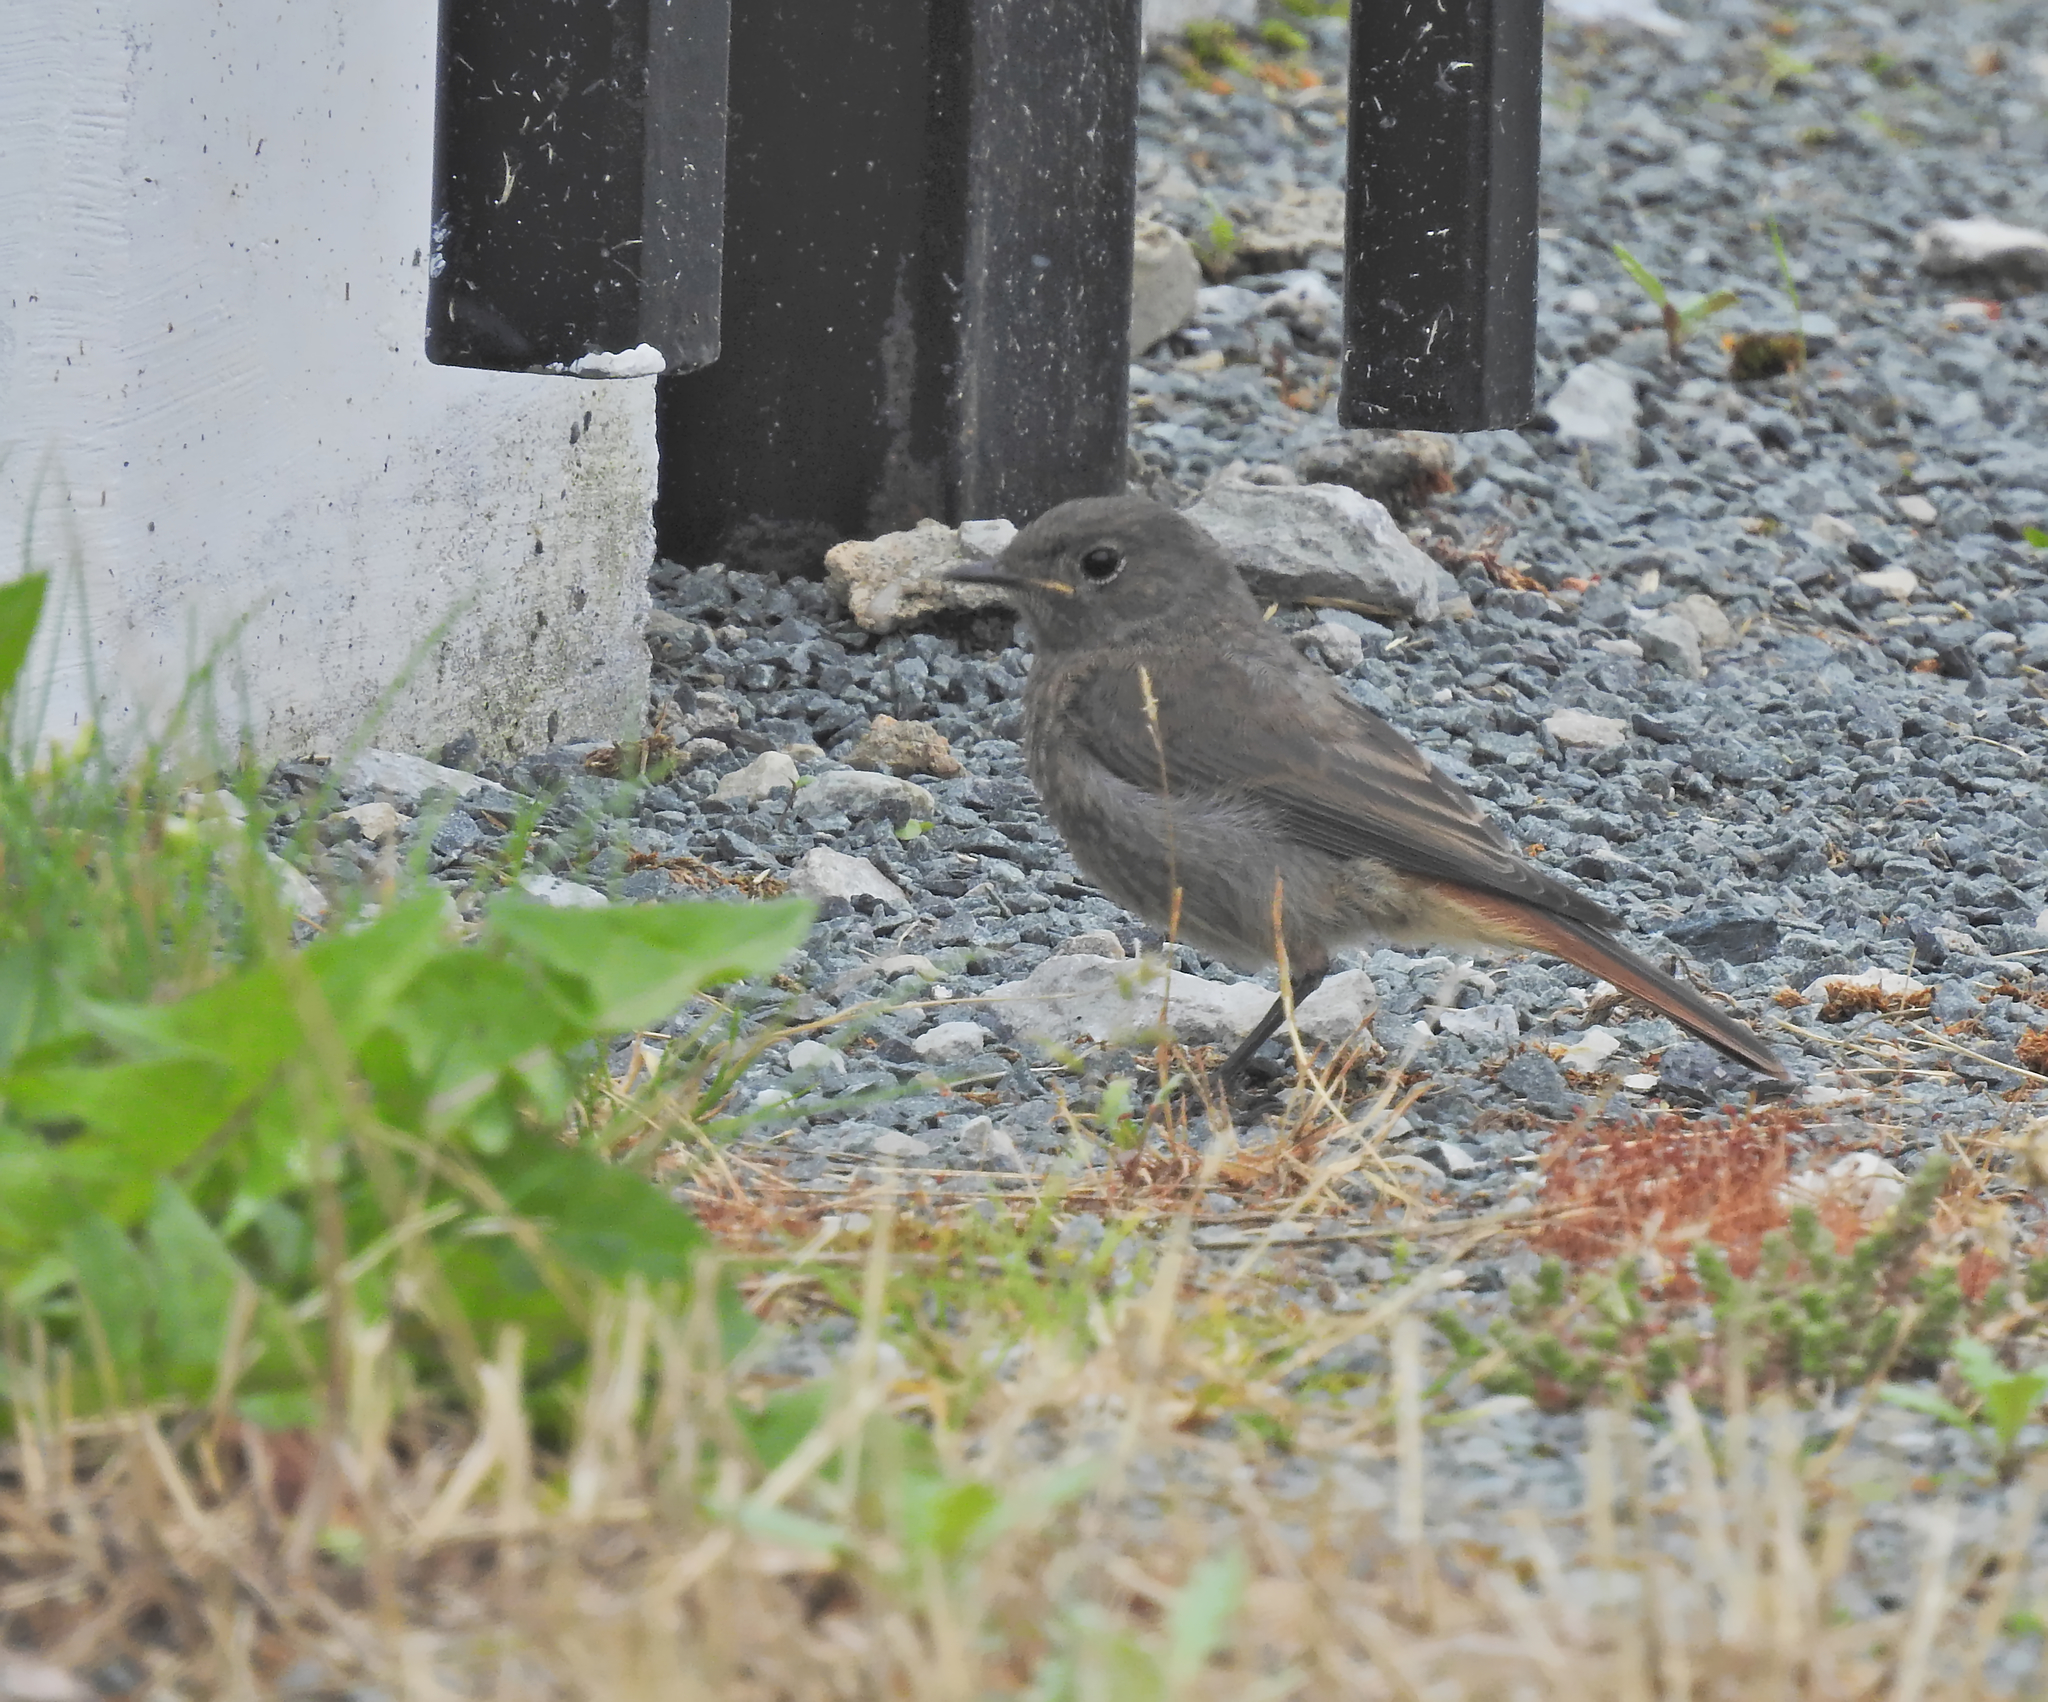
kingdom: Animalia
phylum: Chordata
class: Aves
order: Passeriformes
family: Muscicapidae
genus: Phoenicurus
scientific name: Phoenicurus ochruros
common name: Black redstart
